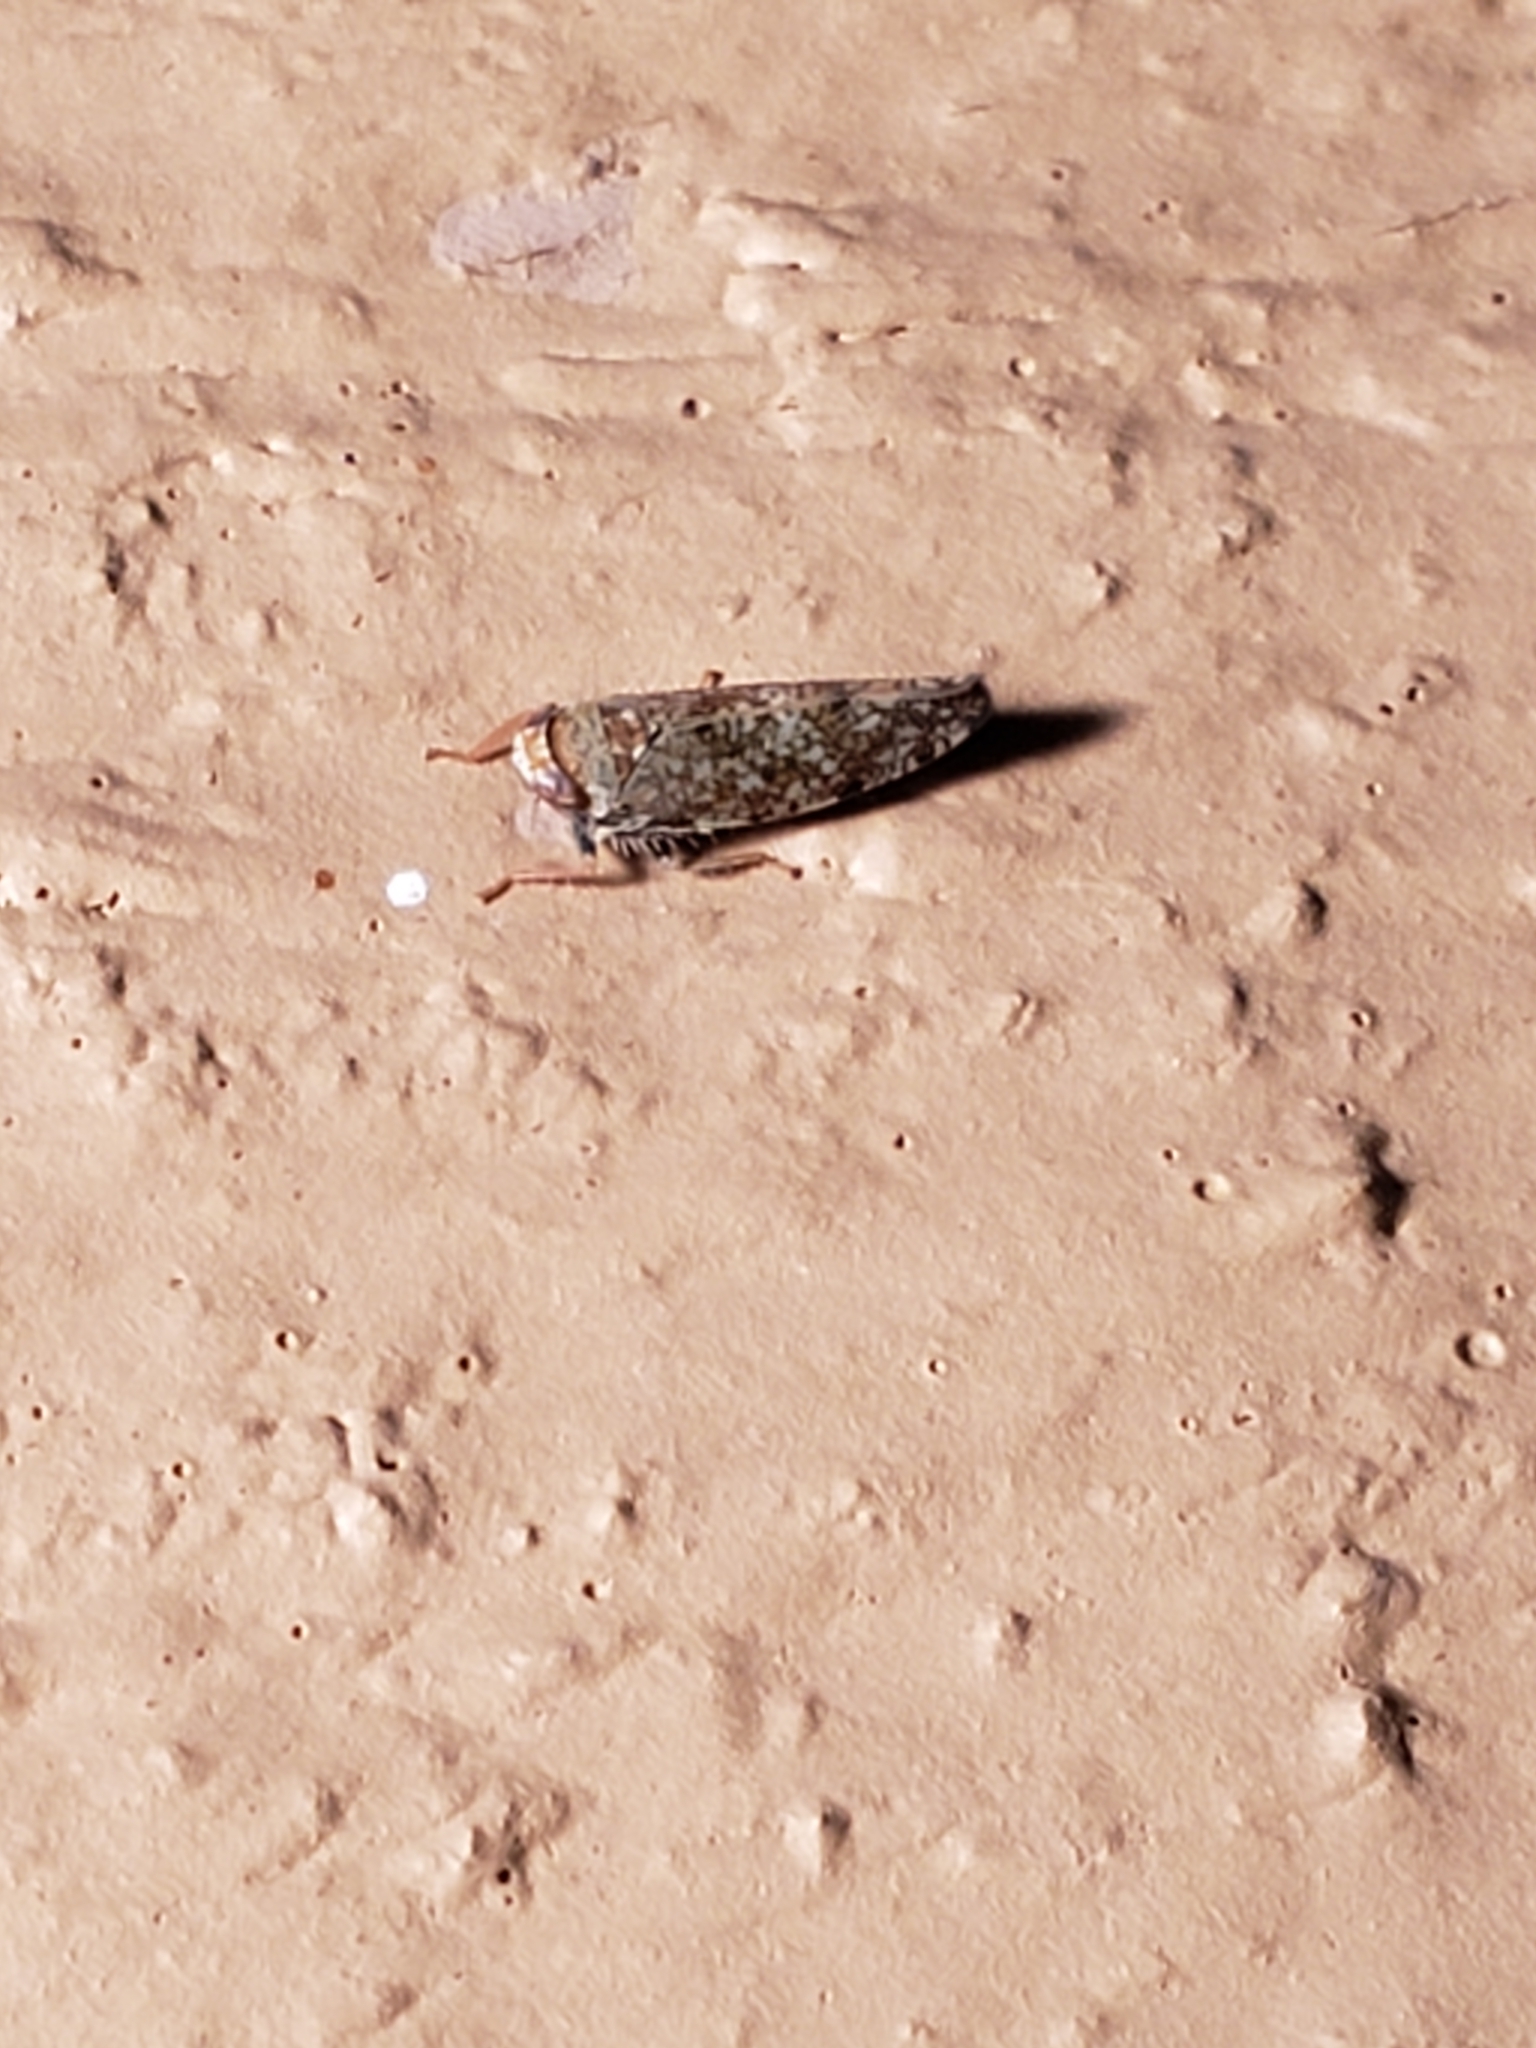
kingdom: Animalia
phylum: Arthropoda
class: Insecta
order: Hemiptera
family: Cicadellidae
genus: Orientus
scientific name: Orientus ishidae
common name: Japanese leafhopper
